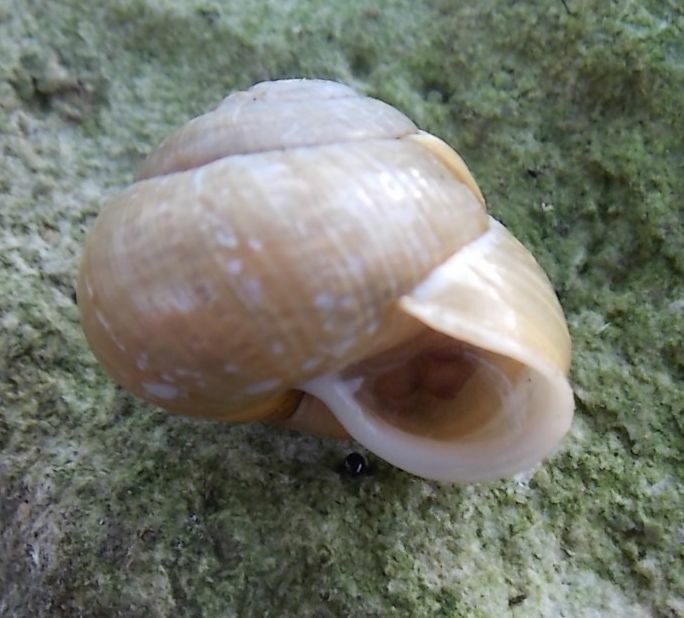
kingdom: Animalia
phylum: Mollusca
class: Gastropoda
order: Stylommatophora
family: Helicidae
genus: Arianta
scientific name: Arianta arbustorum
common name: Copse snail
